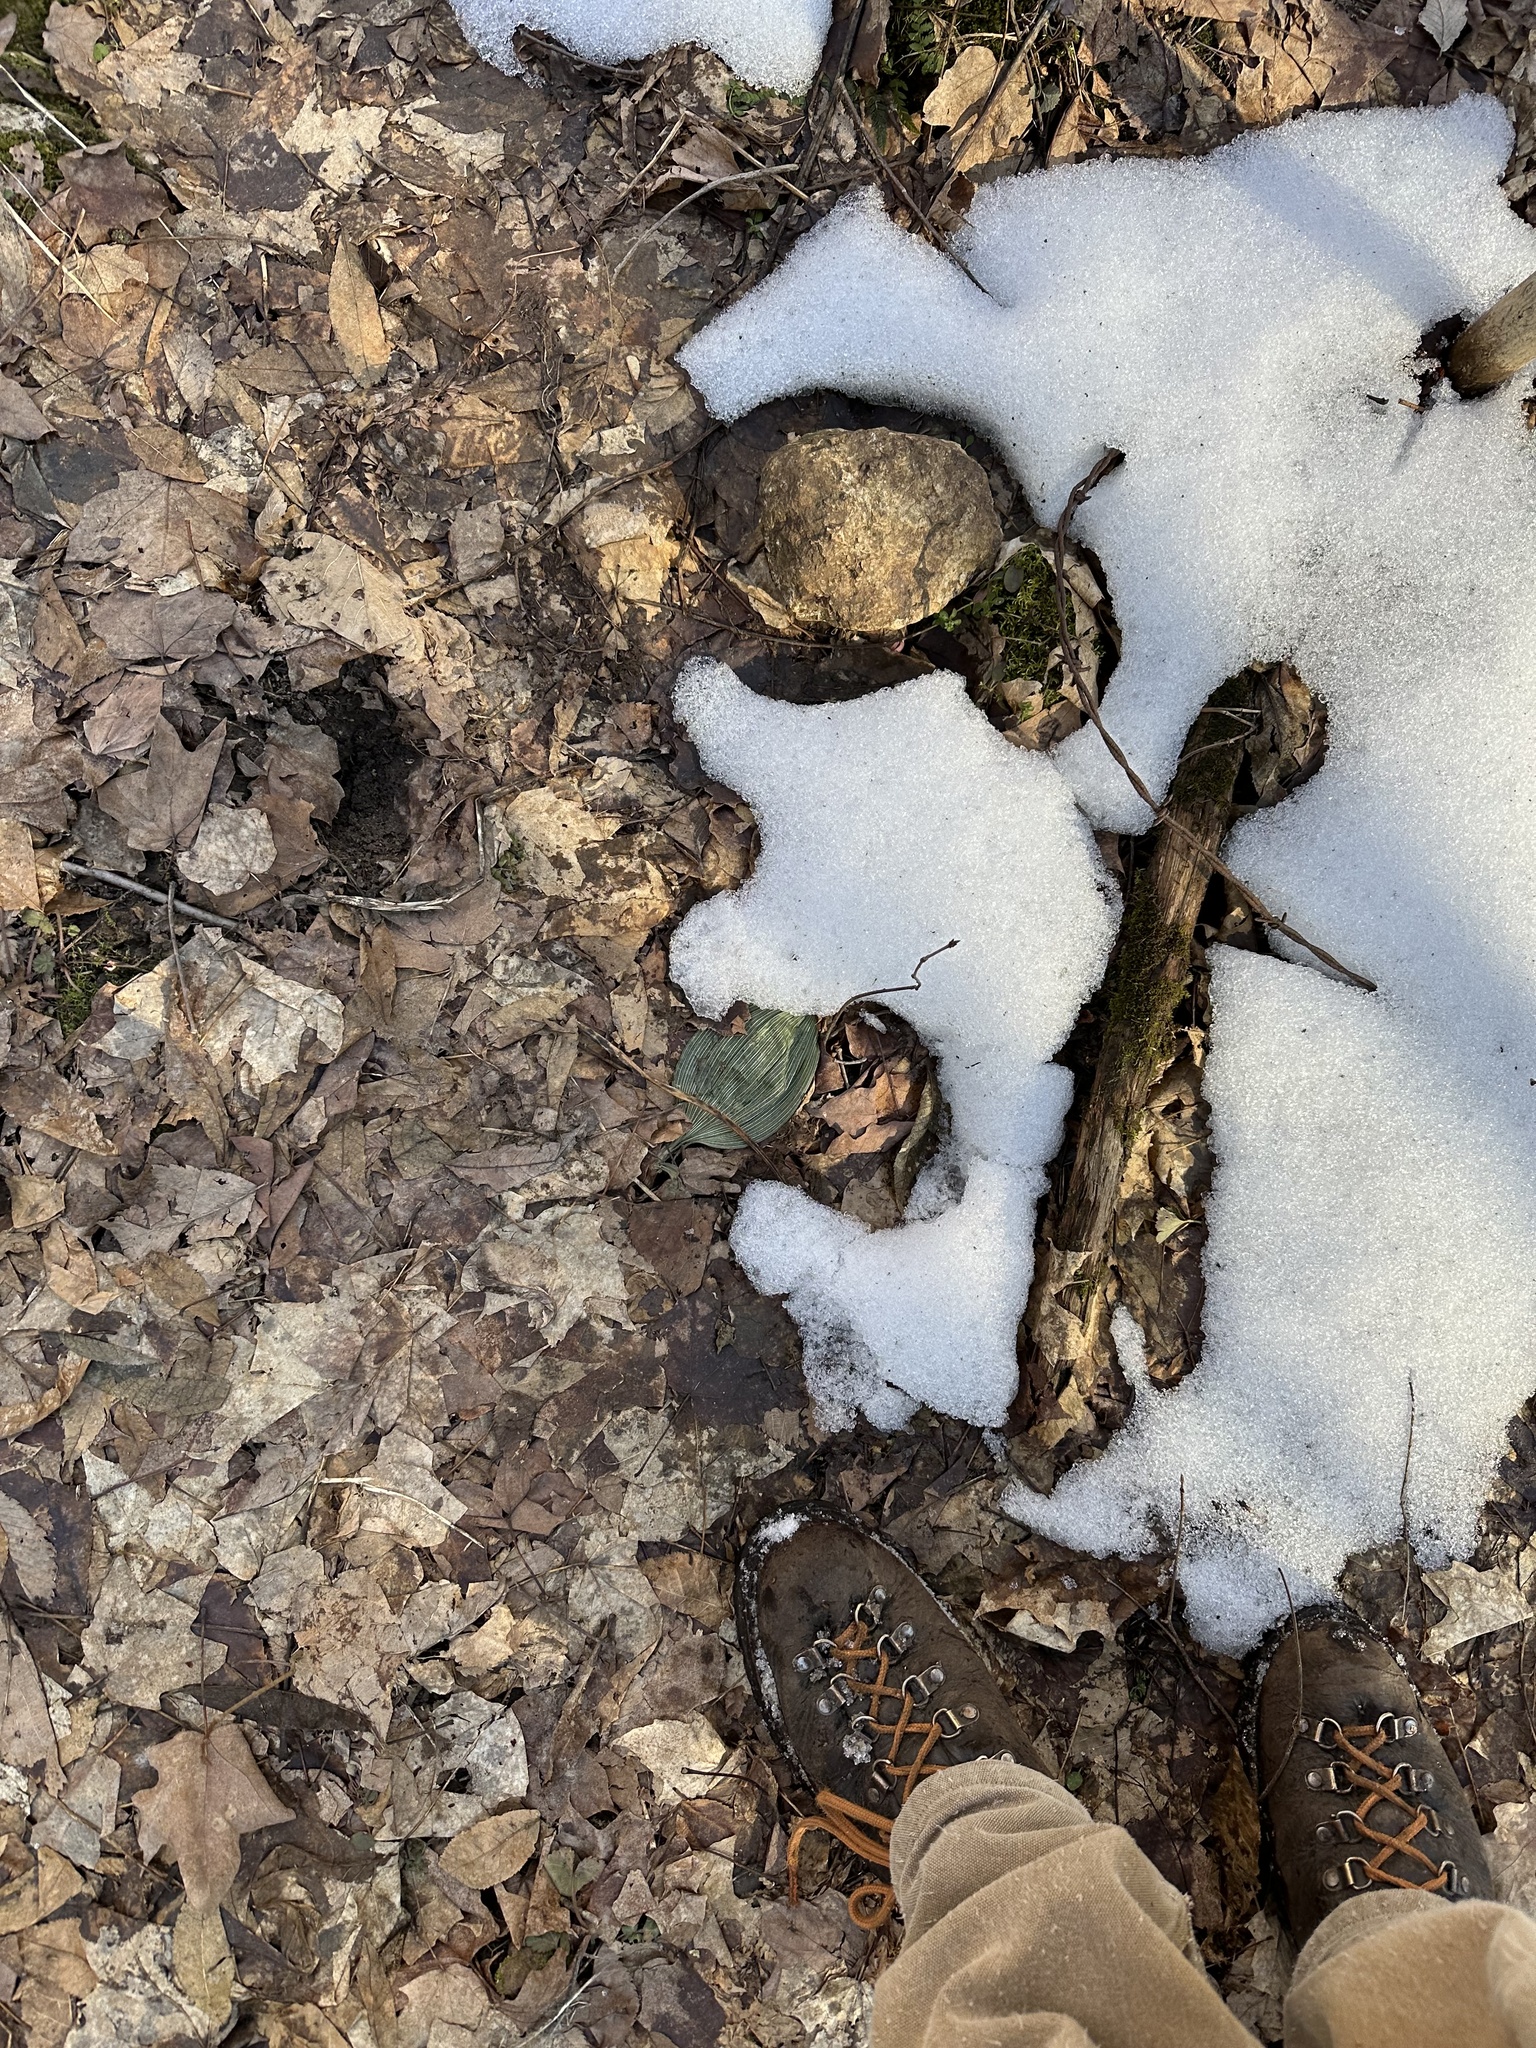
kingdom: Plantae
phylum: Tracheophyta
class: Liliopsida
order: Asparagales
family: Orchidaceae
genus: Aplectrum
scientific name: Aplectrum hyemale
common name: Adam-and-eve
